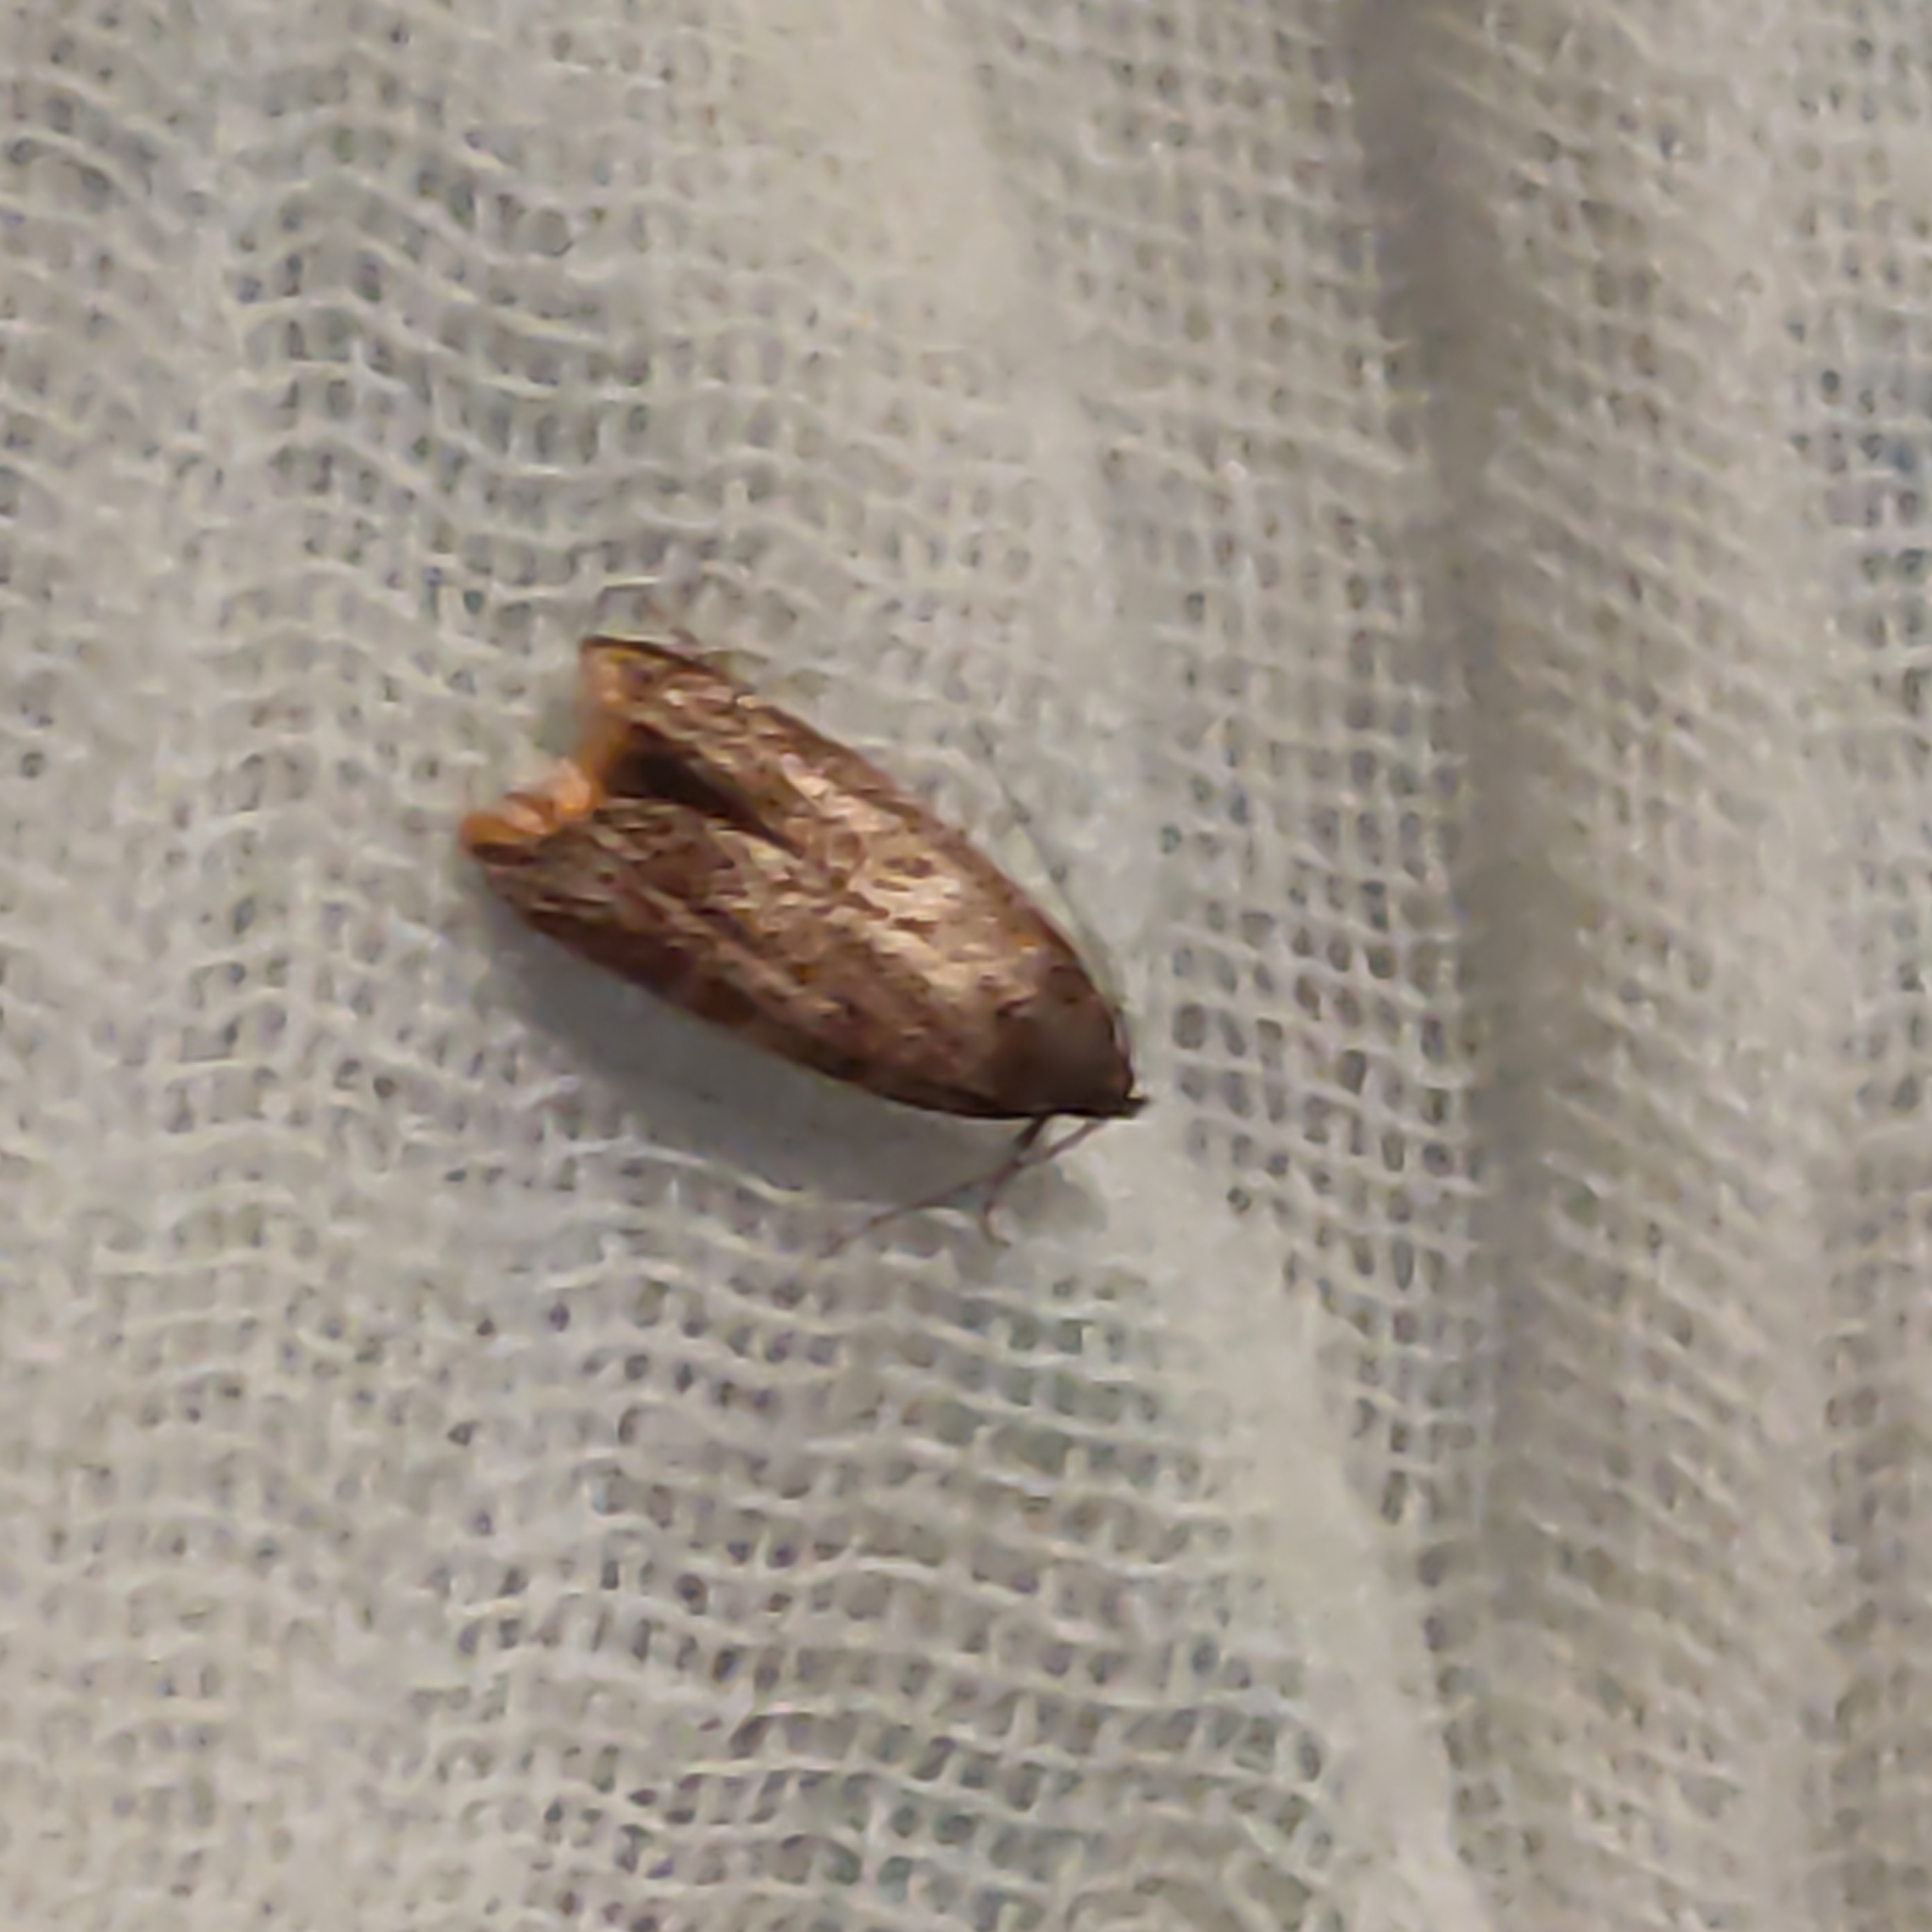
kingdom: Animalia
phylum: Arthropoda
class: Insecta
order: Lepidoptera
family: Oecophoridae
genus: Tachystola
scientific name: Tachystola acroxantha
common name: Ruddy streak
